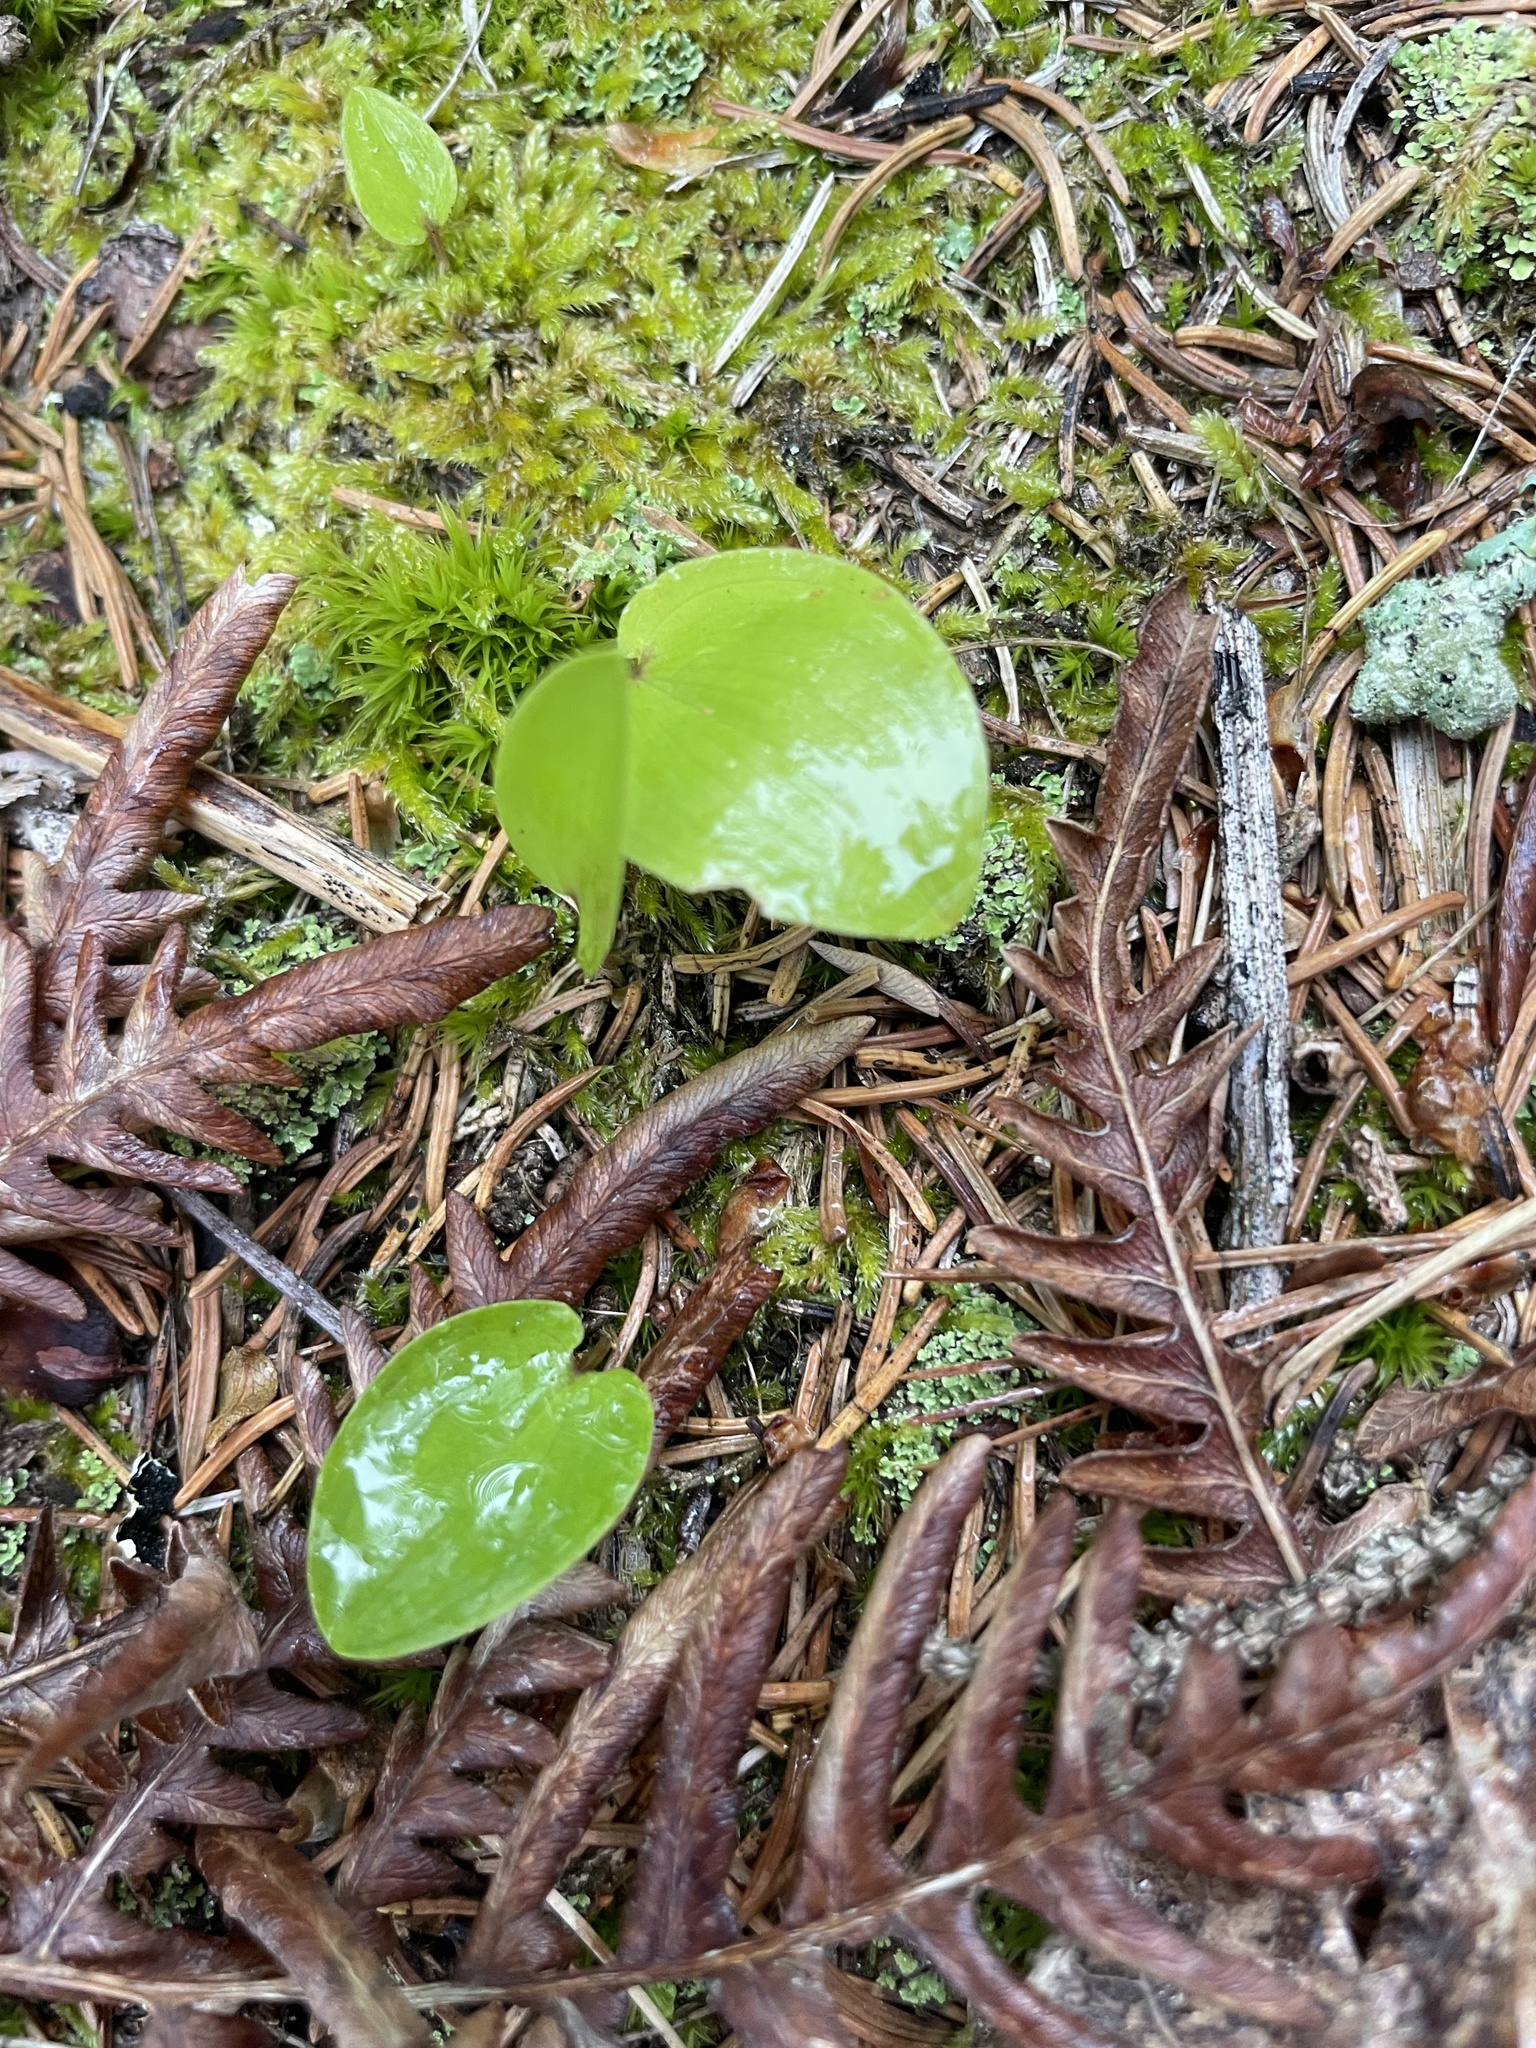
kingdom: Plantae
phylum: Tracheophyta
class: Liliopsida
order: Asparagales
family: Asparagaceae
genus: Maianthemum
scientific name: Maianthemum canadense
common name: False lily-of-the-valley
